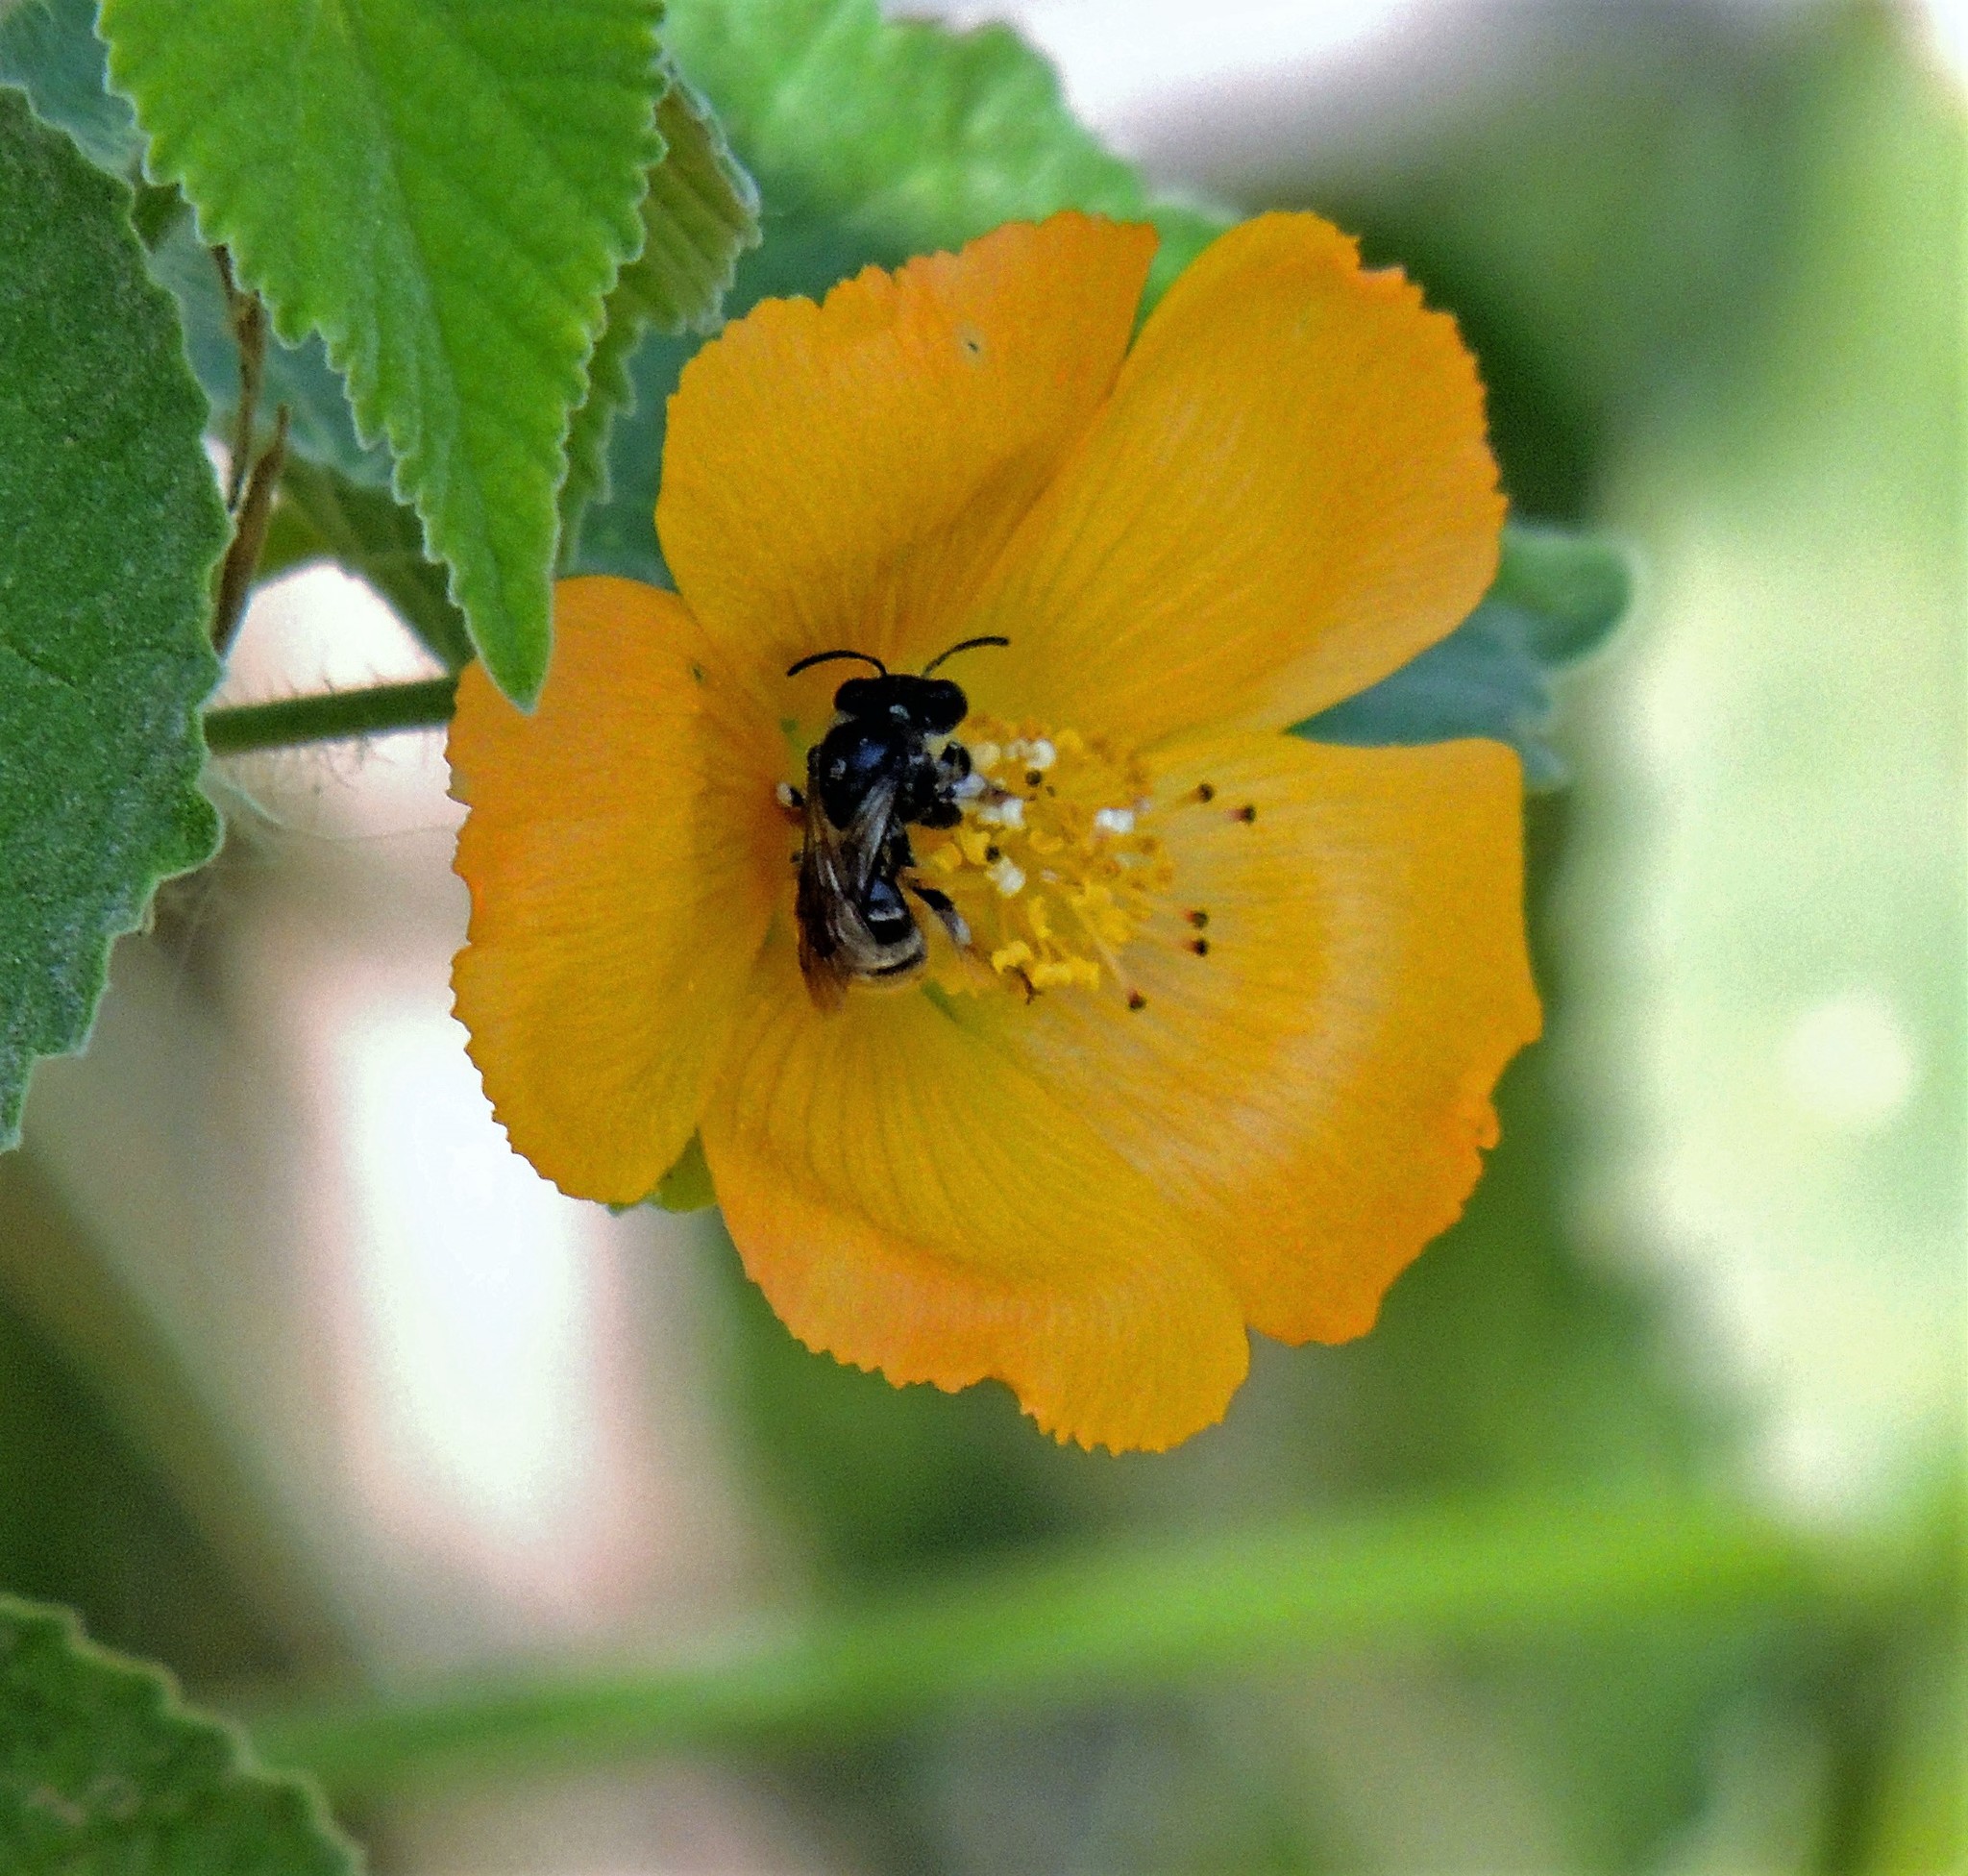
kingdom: Plantae
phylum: Tracheophyta
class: Magnoliopsida
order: Malvales
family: Malvaceae
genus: Abutilon
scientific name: Abutilon grandifolium
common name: Hairy abutilon
